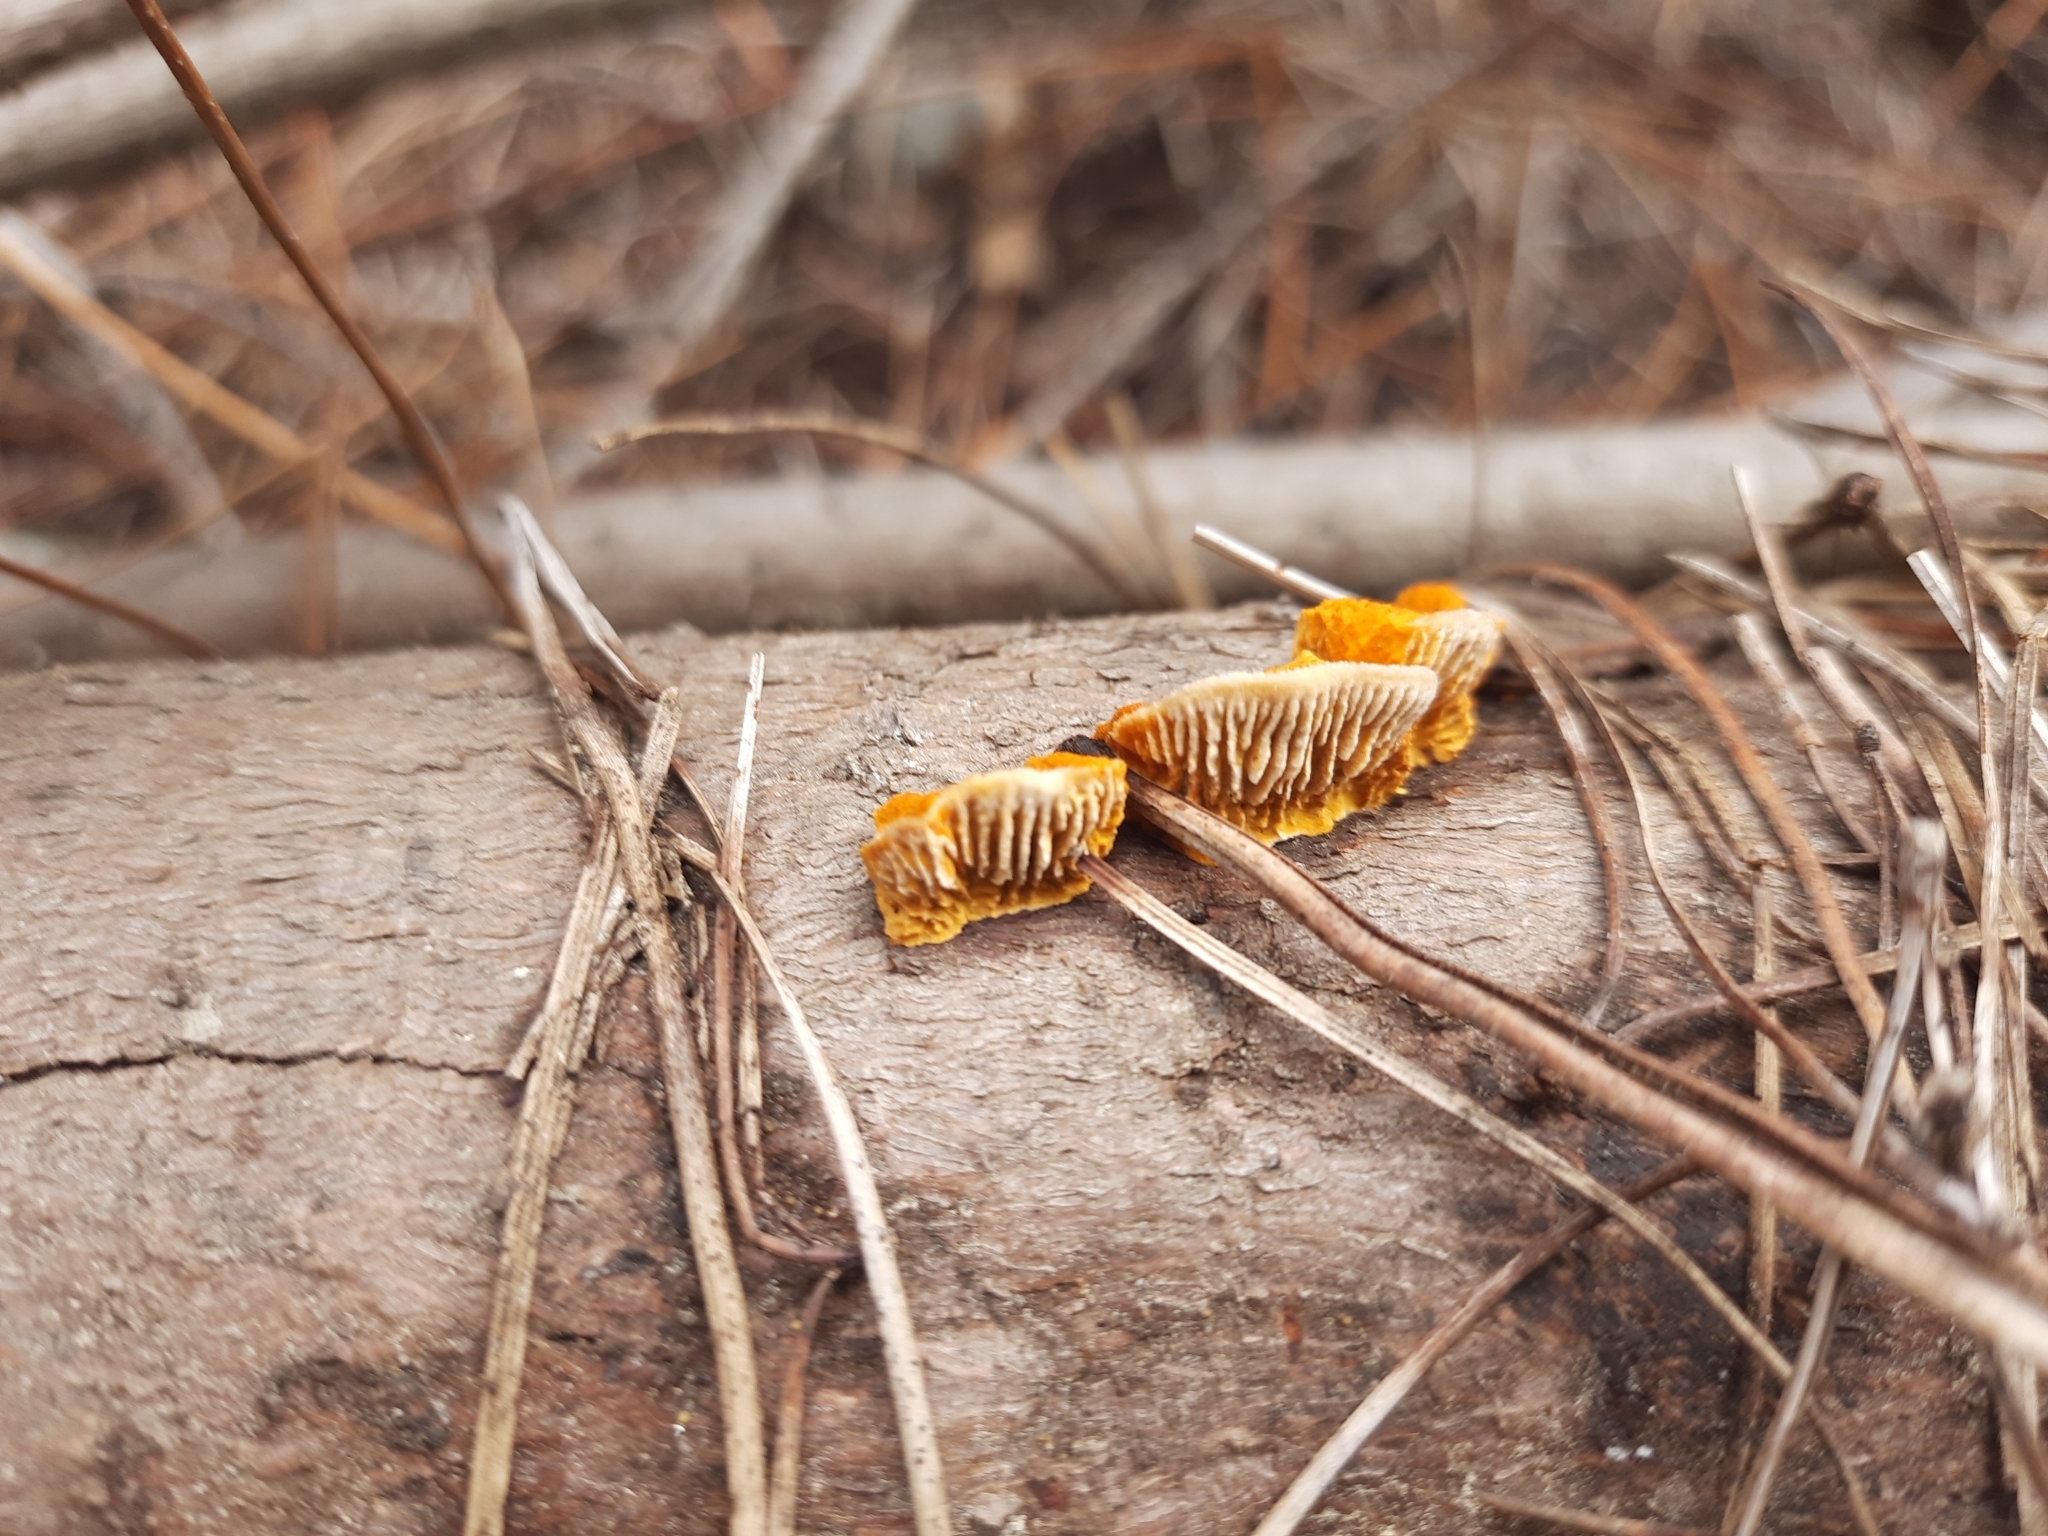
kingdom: Fungi
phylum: Basidiomycota
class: Agaricomycetes
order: Gloeophyllales
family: Gloeophyllaceae
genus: Gloeophyllum
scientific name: Gloeophyllum sepiarium
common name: Conifer mazegill
